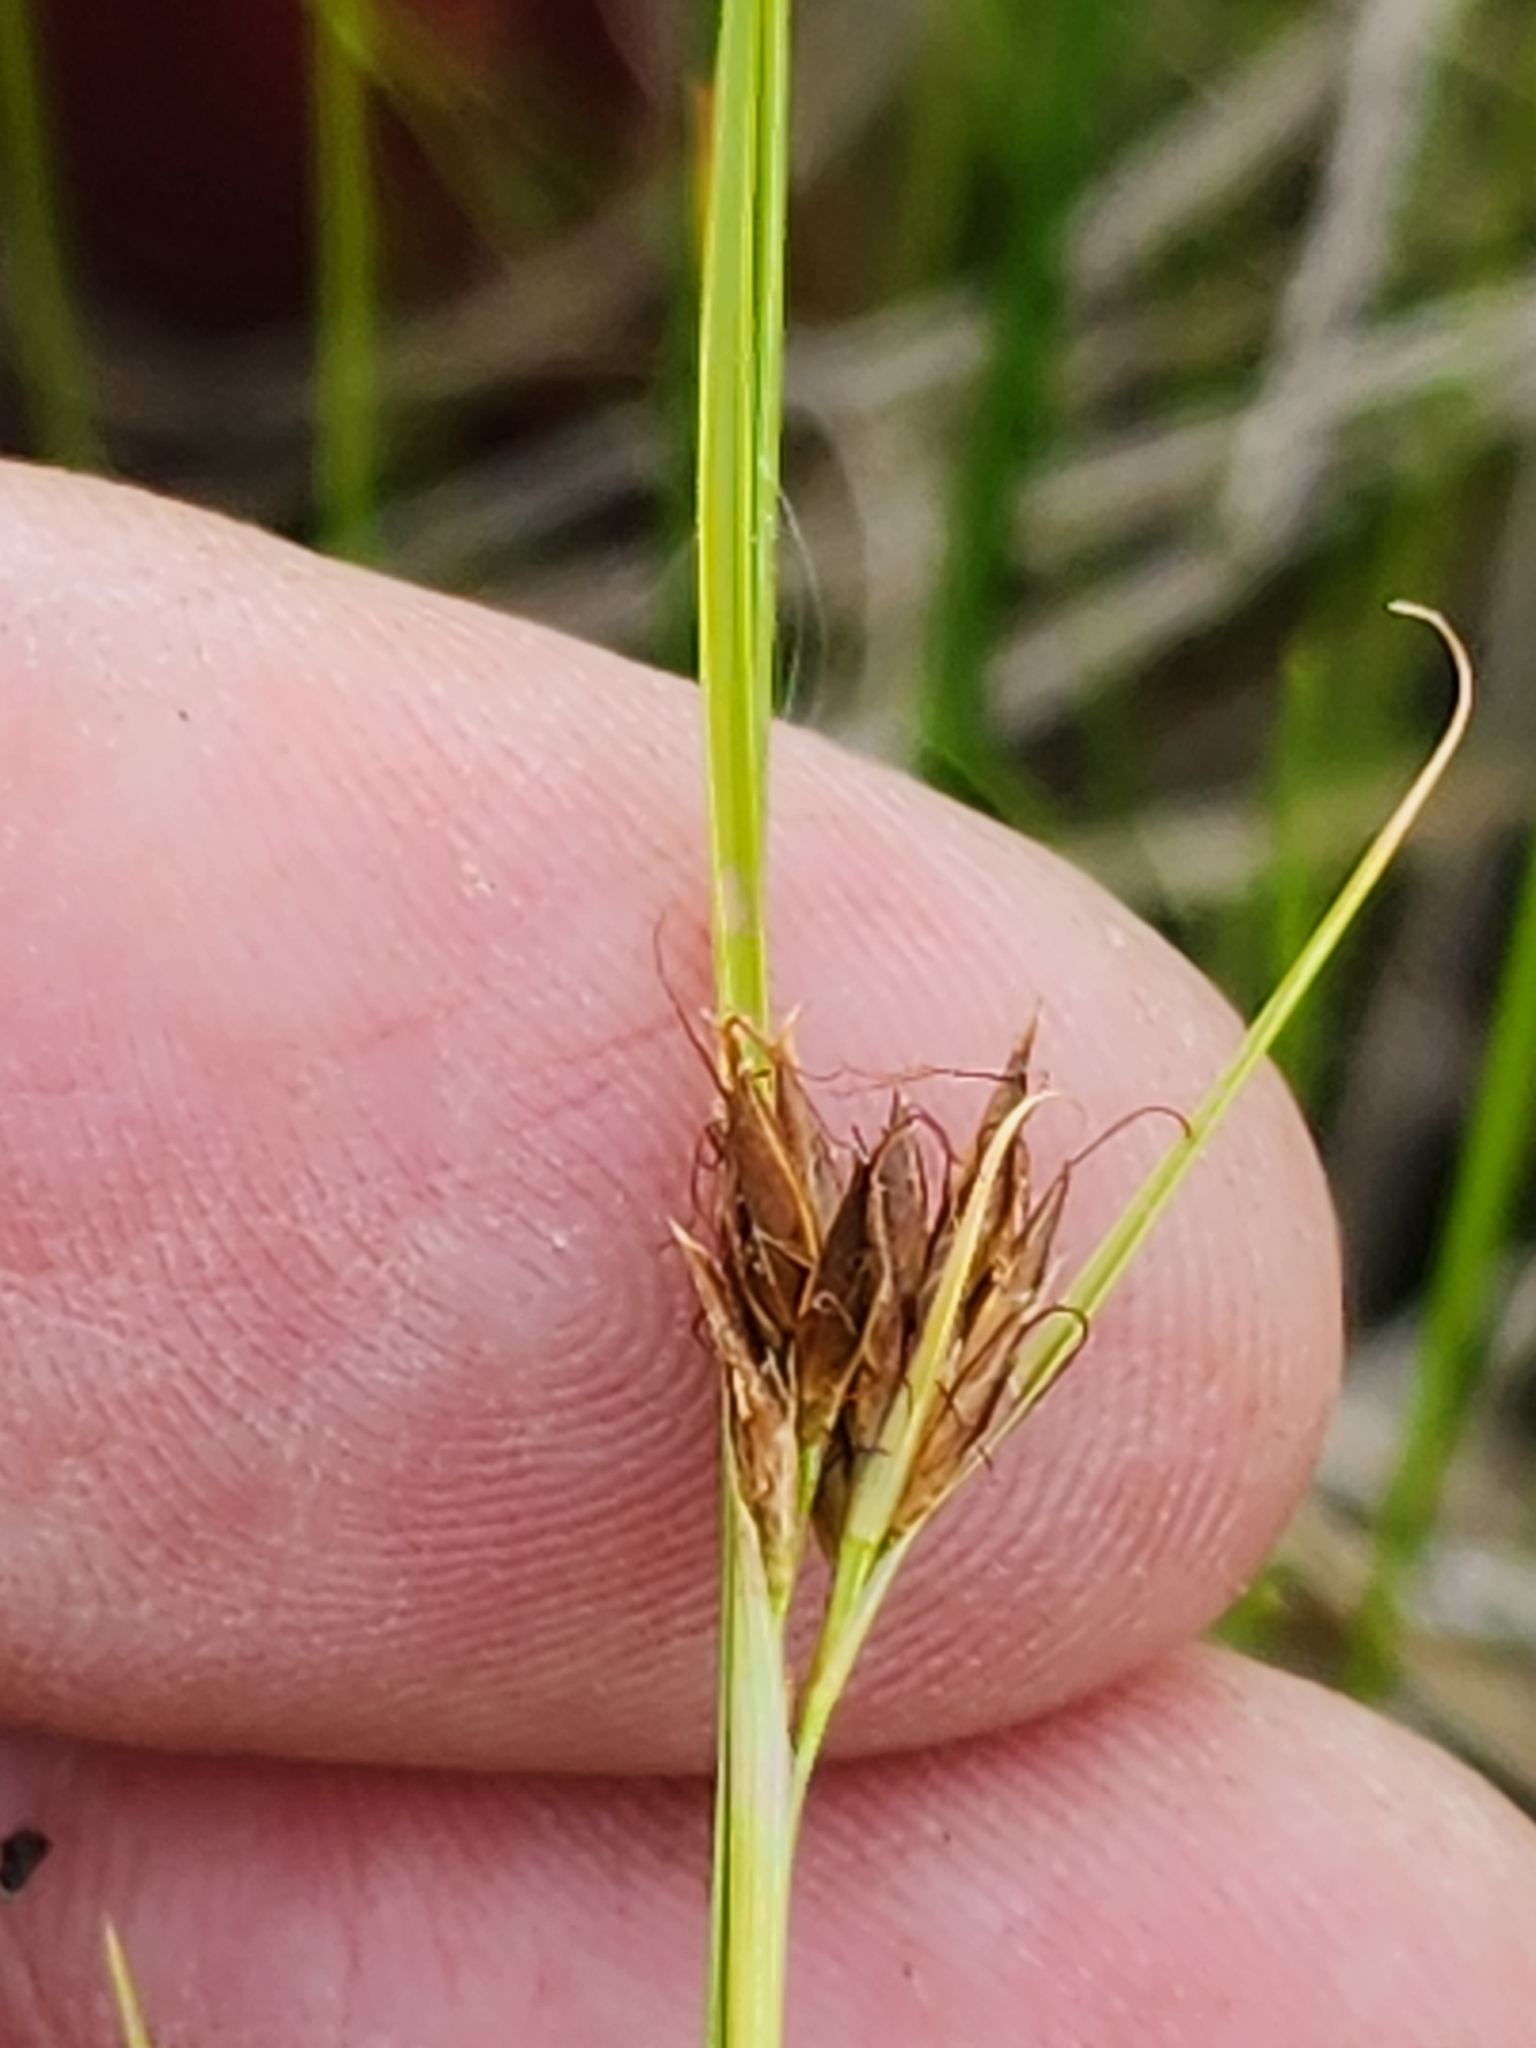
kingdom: Plantae
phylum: Tracheophyta
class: Liliopsida
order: Poales
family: Cyperaceae
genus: Rhynchospora
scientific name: Rhynchospora fusca
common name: Brown beak-sedge
